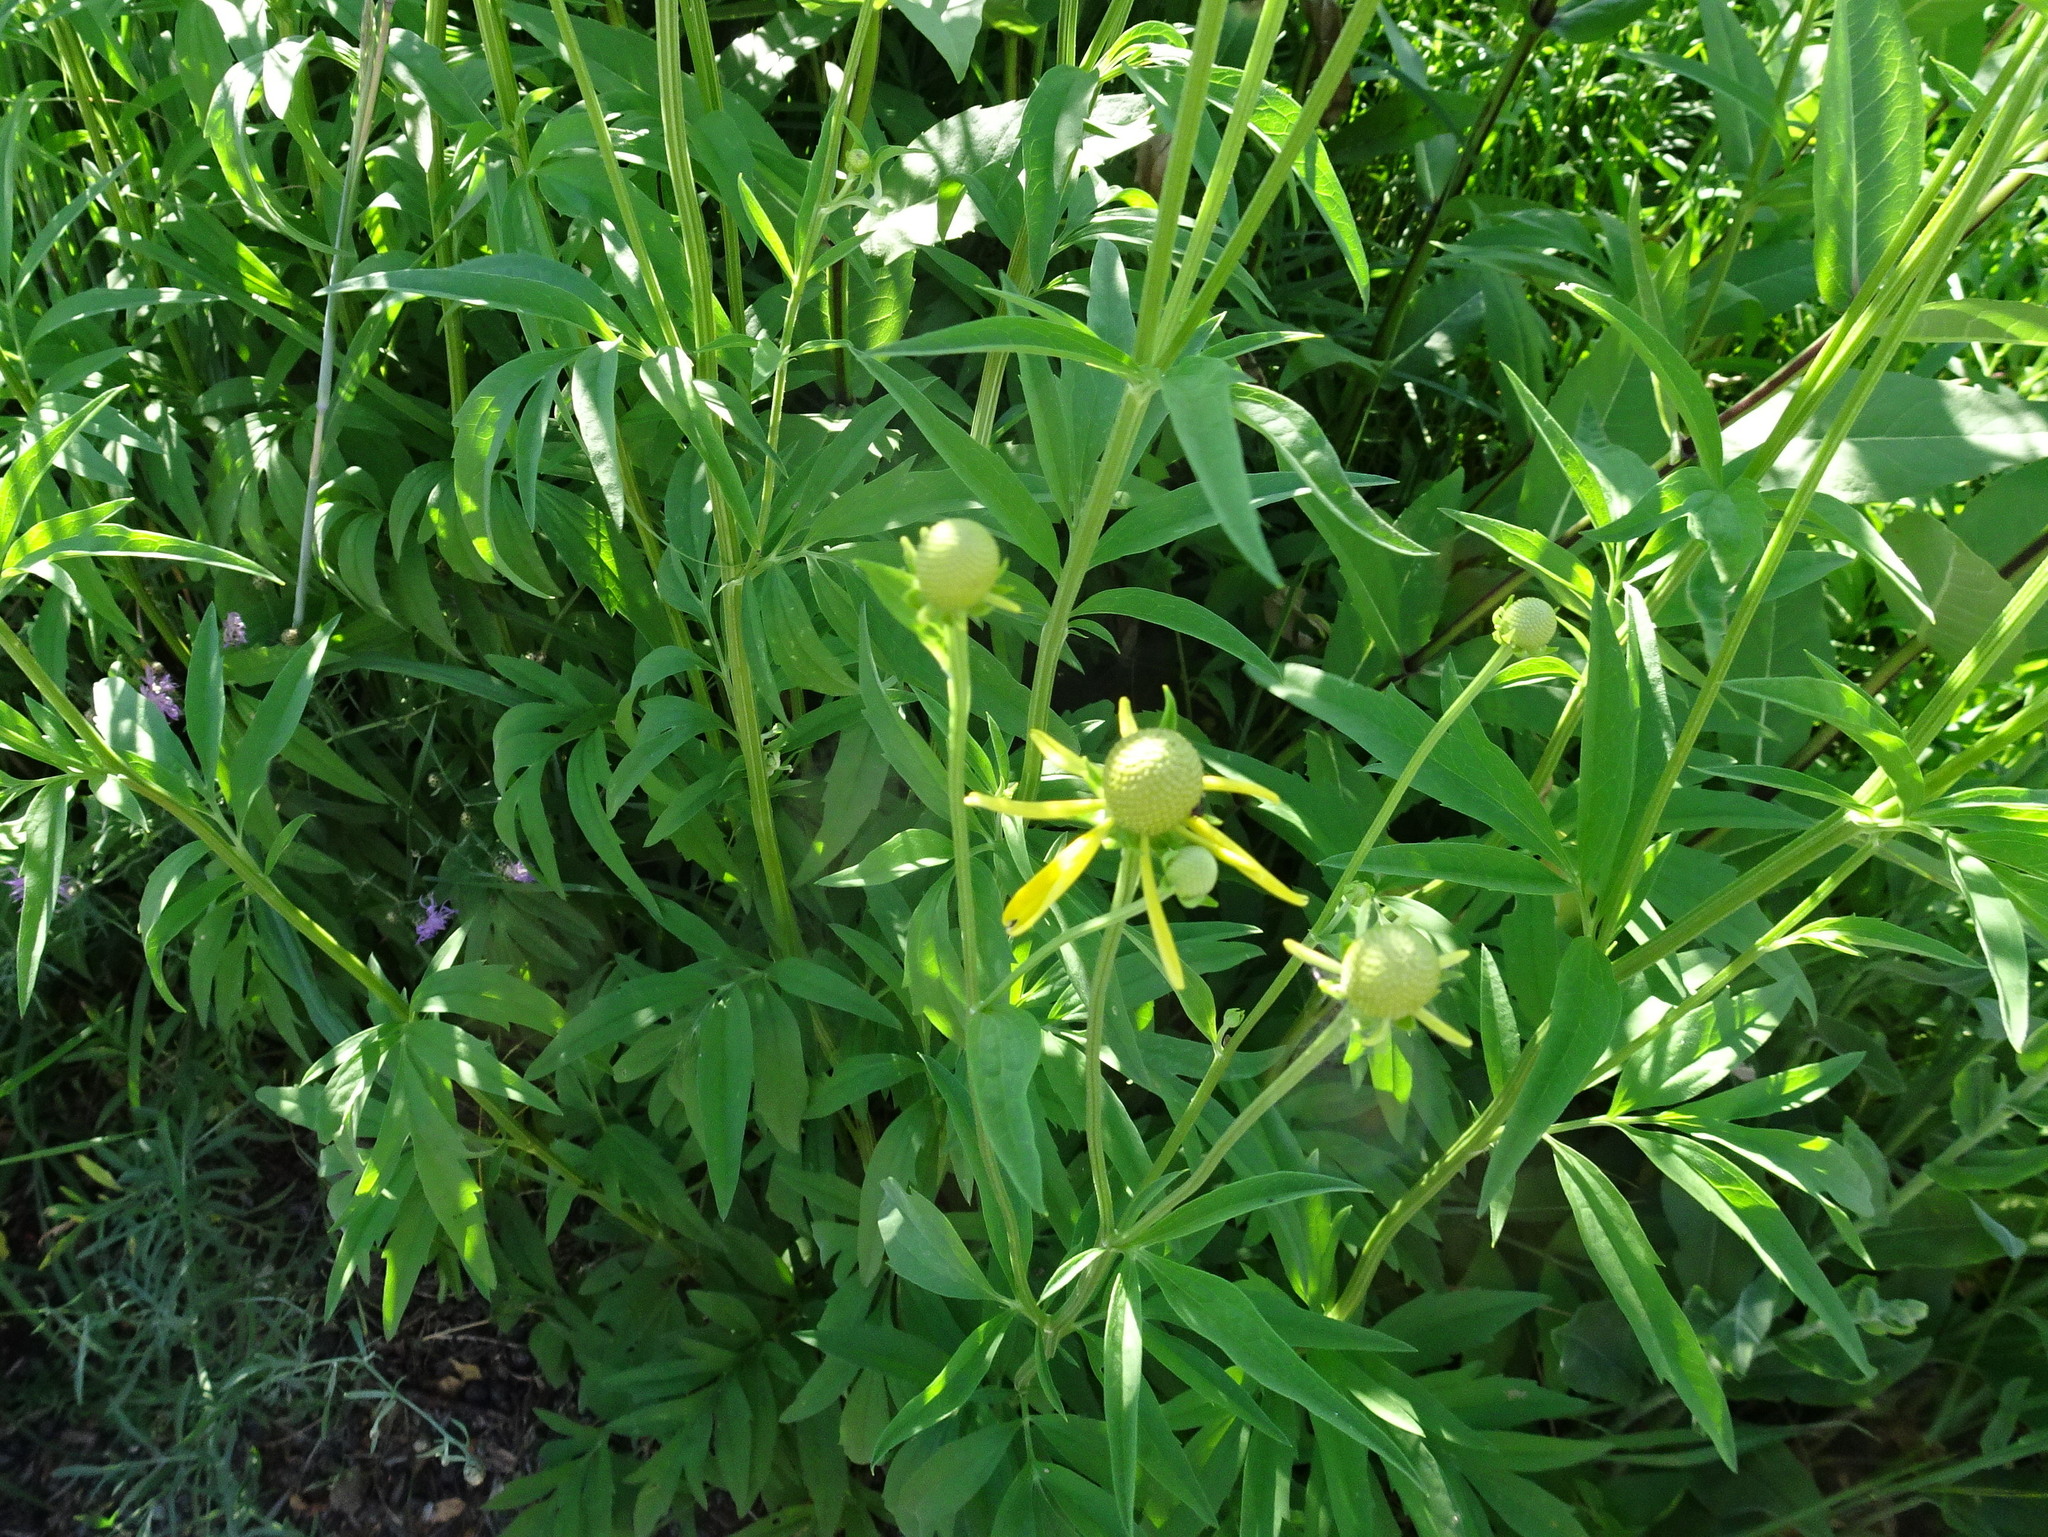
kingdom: Plantae
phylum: Tracheophyta
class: Magnoliopsida
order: Asterales
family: Asteraceae
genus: Ratibida
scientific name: Ratibida pinnata
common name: Drooping prairie-coneflower
